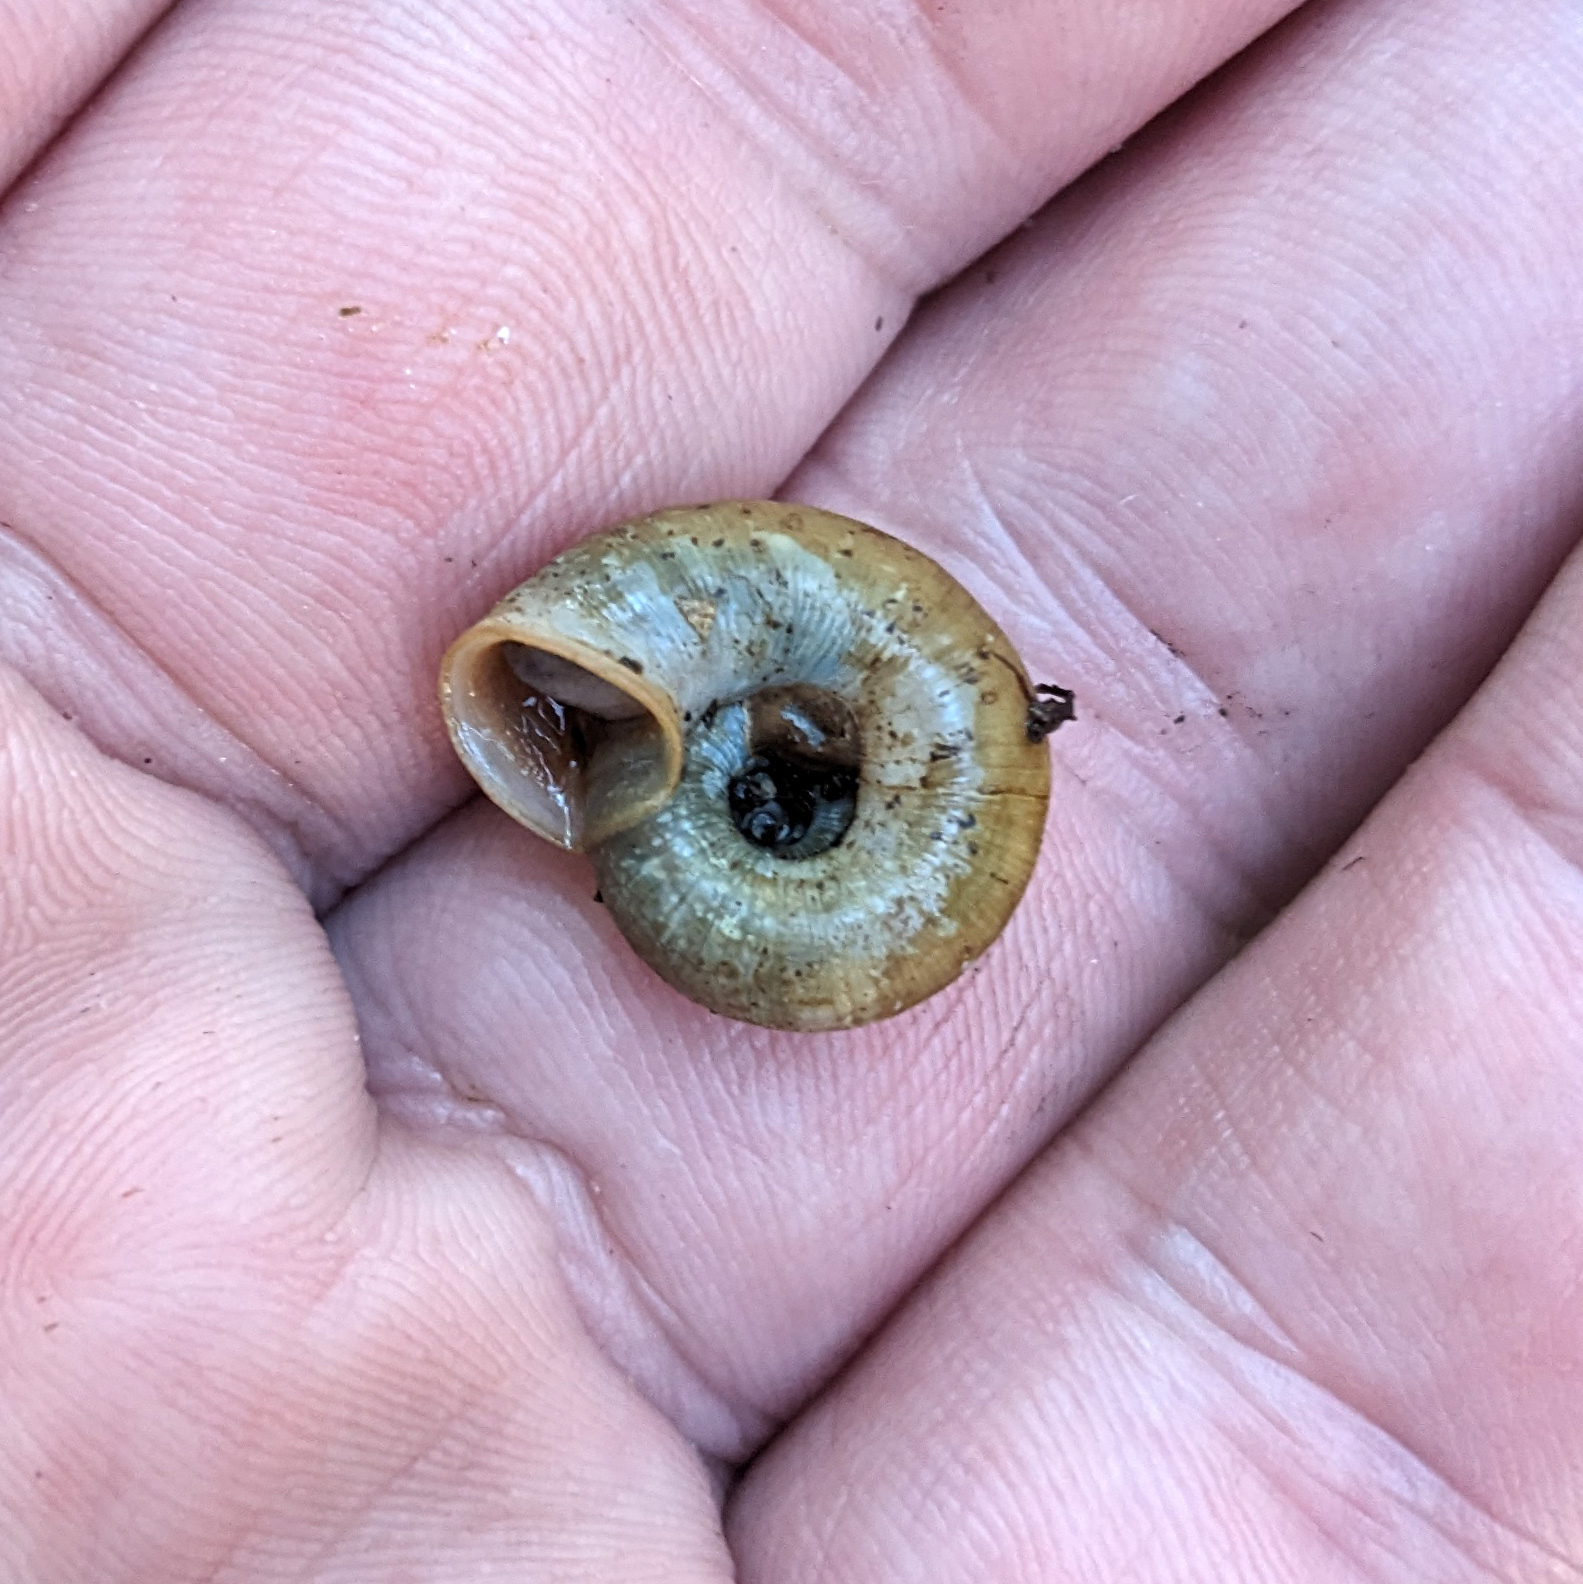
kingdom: Animalia
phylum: Mollusca
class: Gastropoda
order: Stylommatophora
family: Haplotrematidae
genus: Haplotrema
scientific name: Haplotrema concavum
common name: Gray-foot lancetooth
